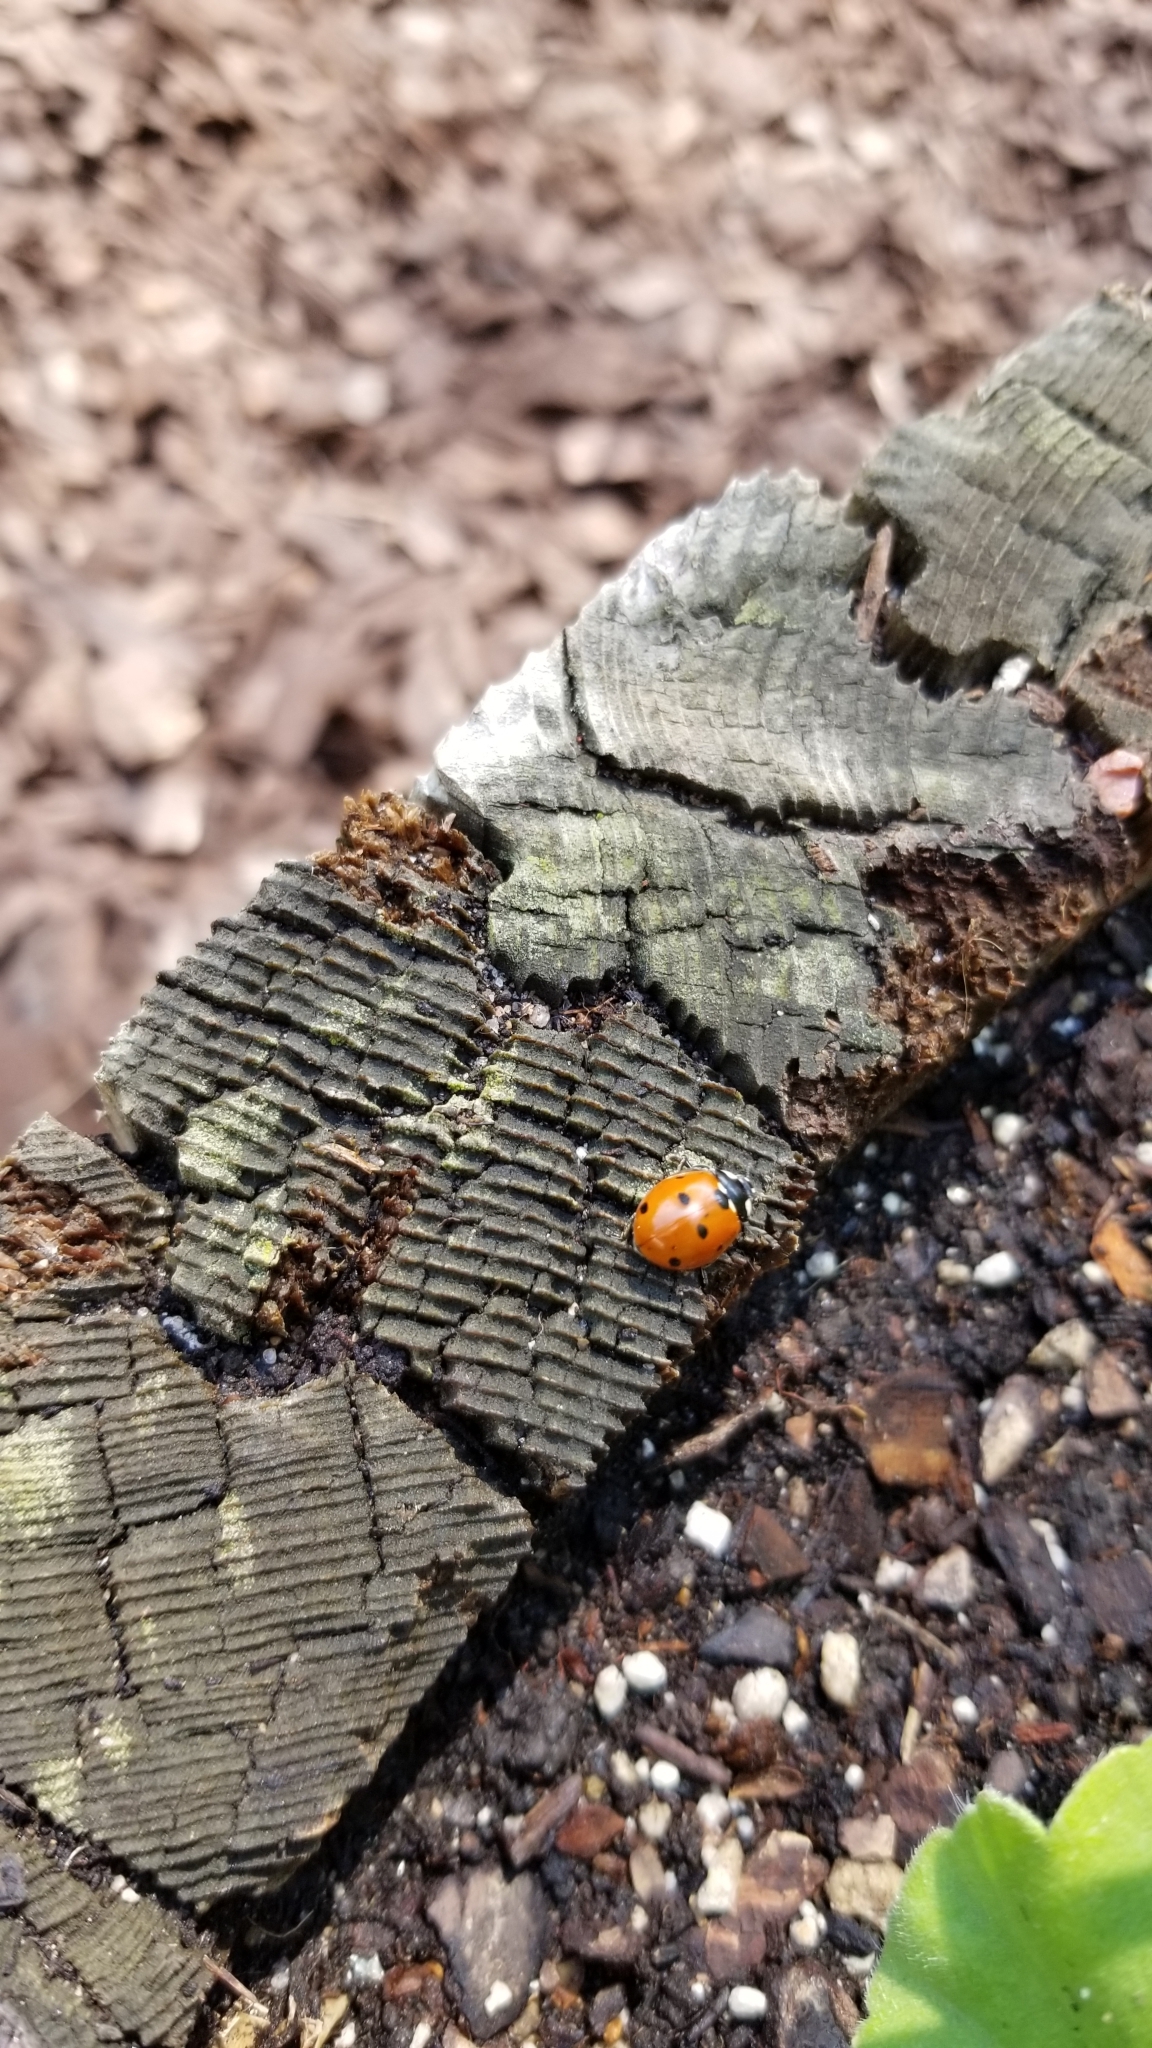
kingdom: Animalia
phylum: Arthropoda
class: Insecta
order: Coleoptera
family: Coccinellidae
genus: Coccinella
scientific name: Coccinella septempunctata
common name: Sevenspotted lady beetle
